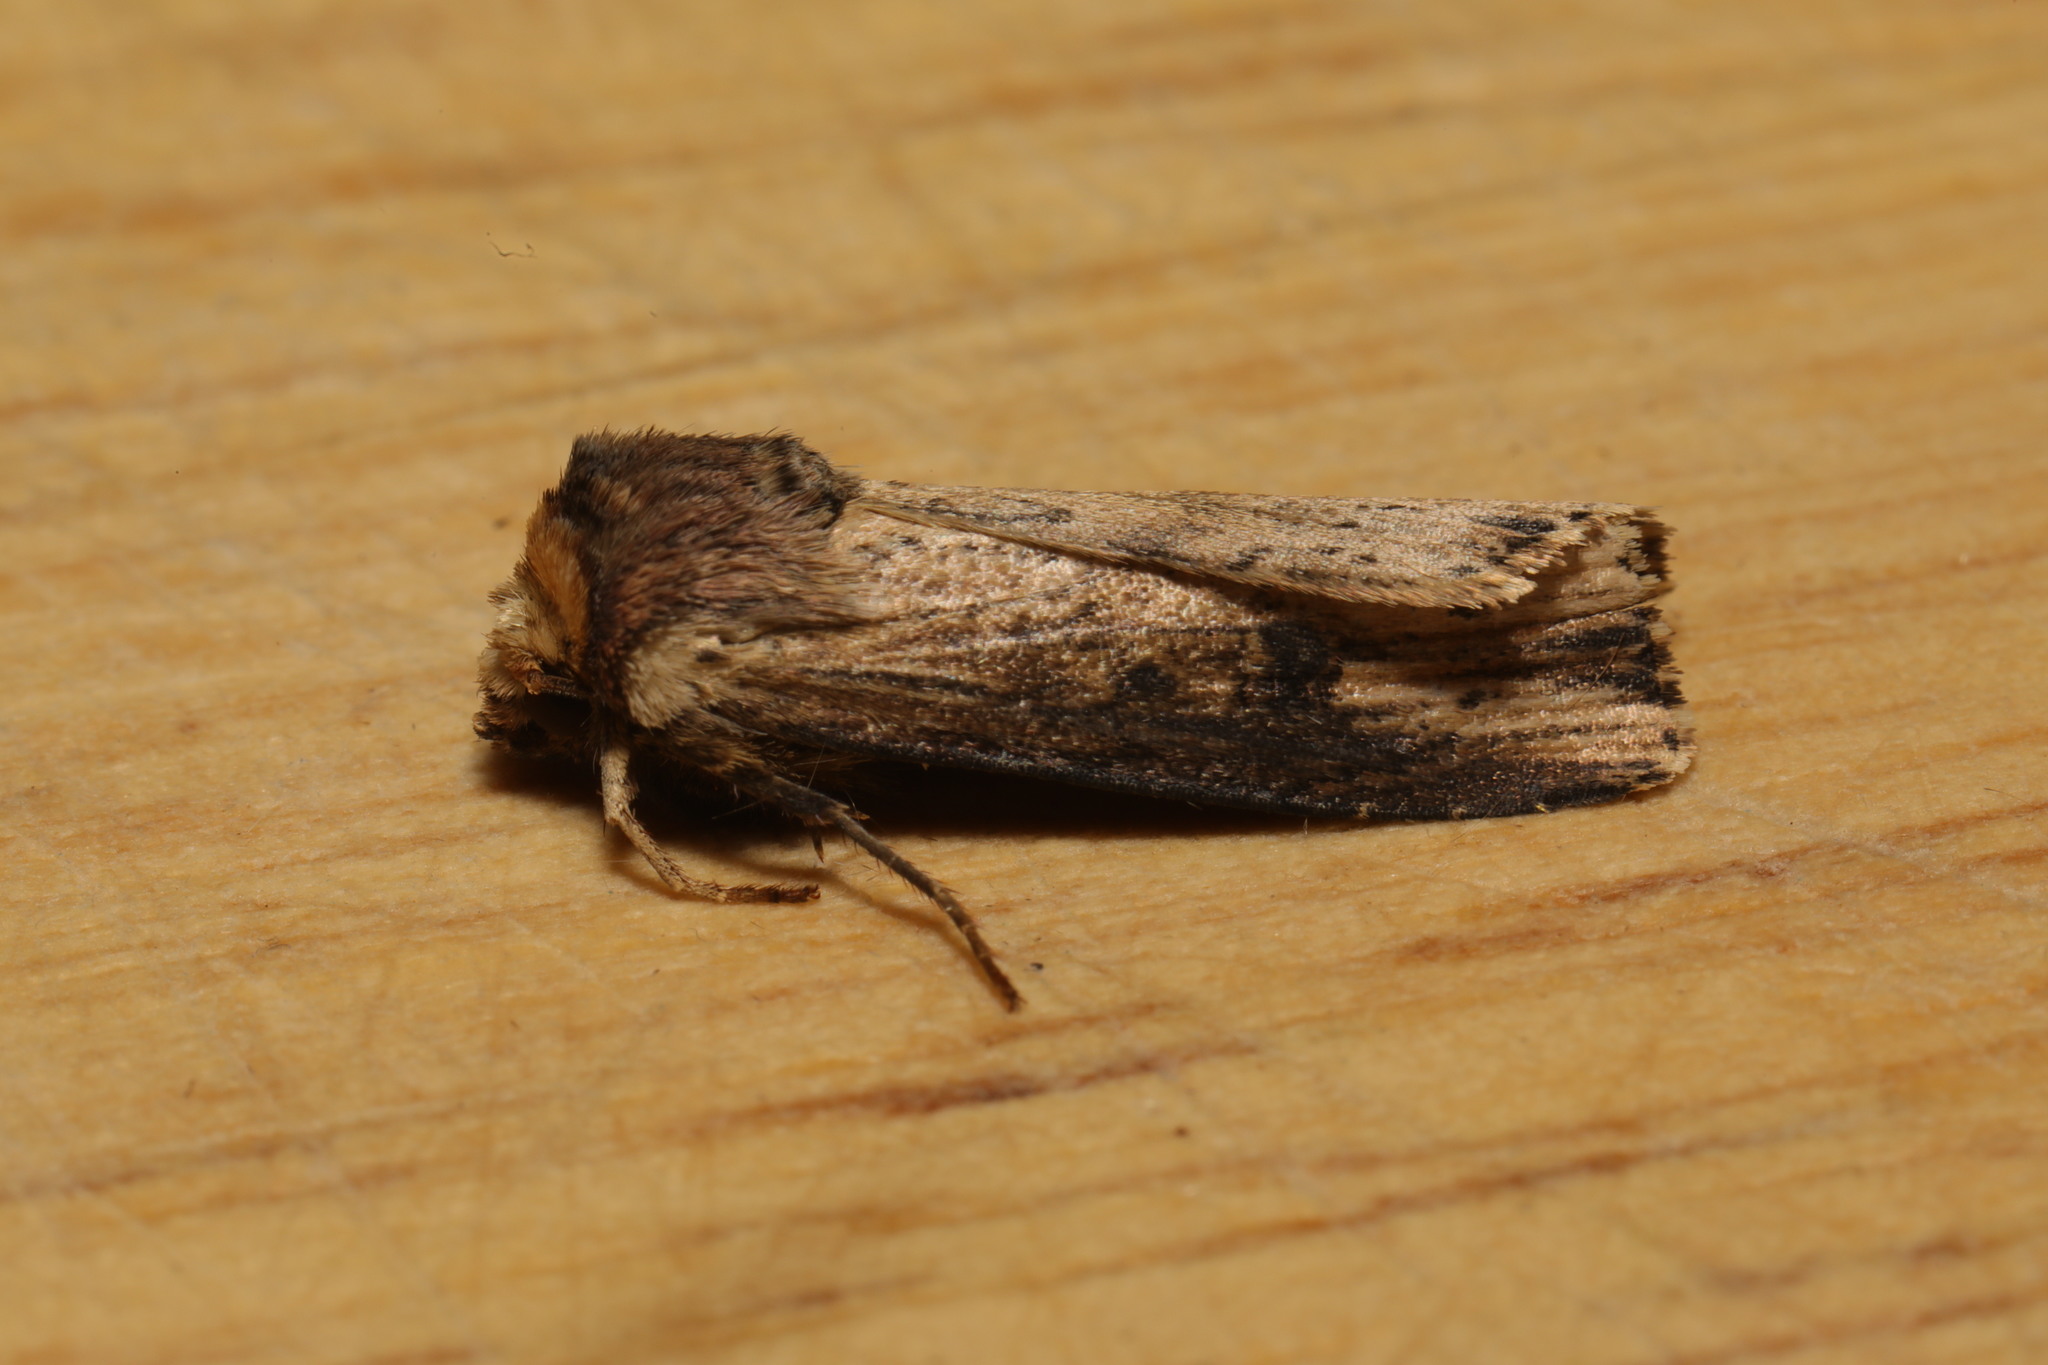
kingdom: Animalia
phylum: Arthropoda
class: Insecta
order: Lepidoptera
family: Noctuidae
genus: Axylia
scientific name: Axylia putris
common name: Flame
